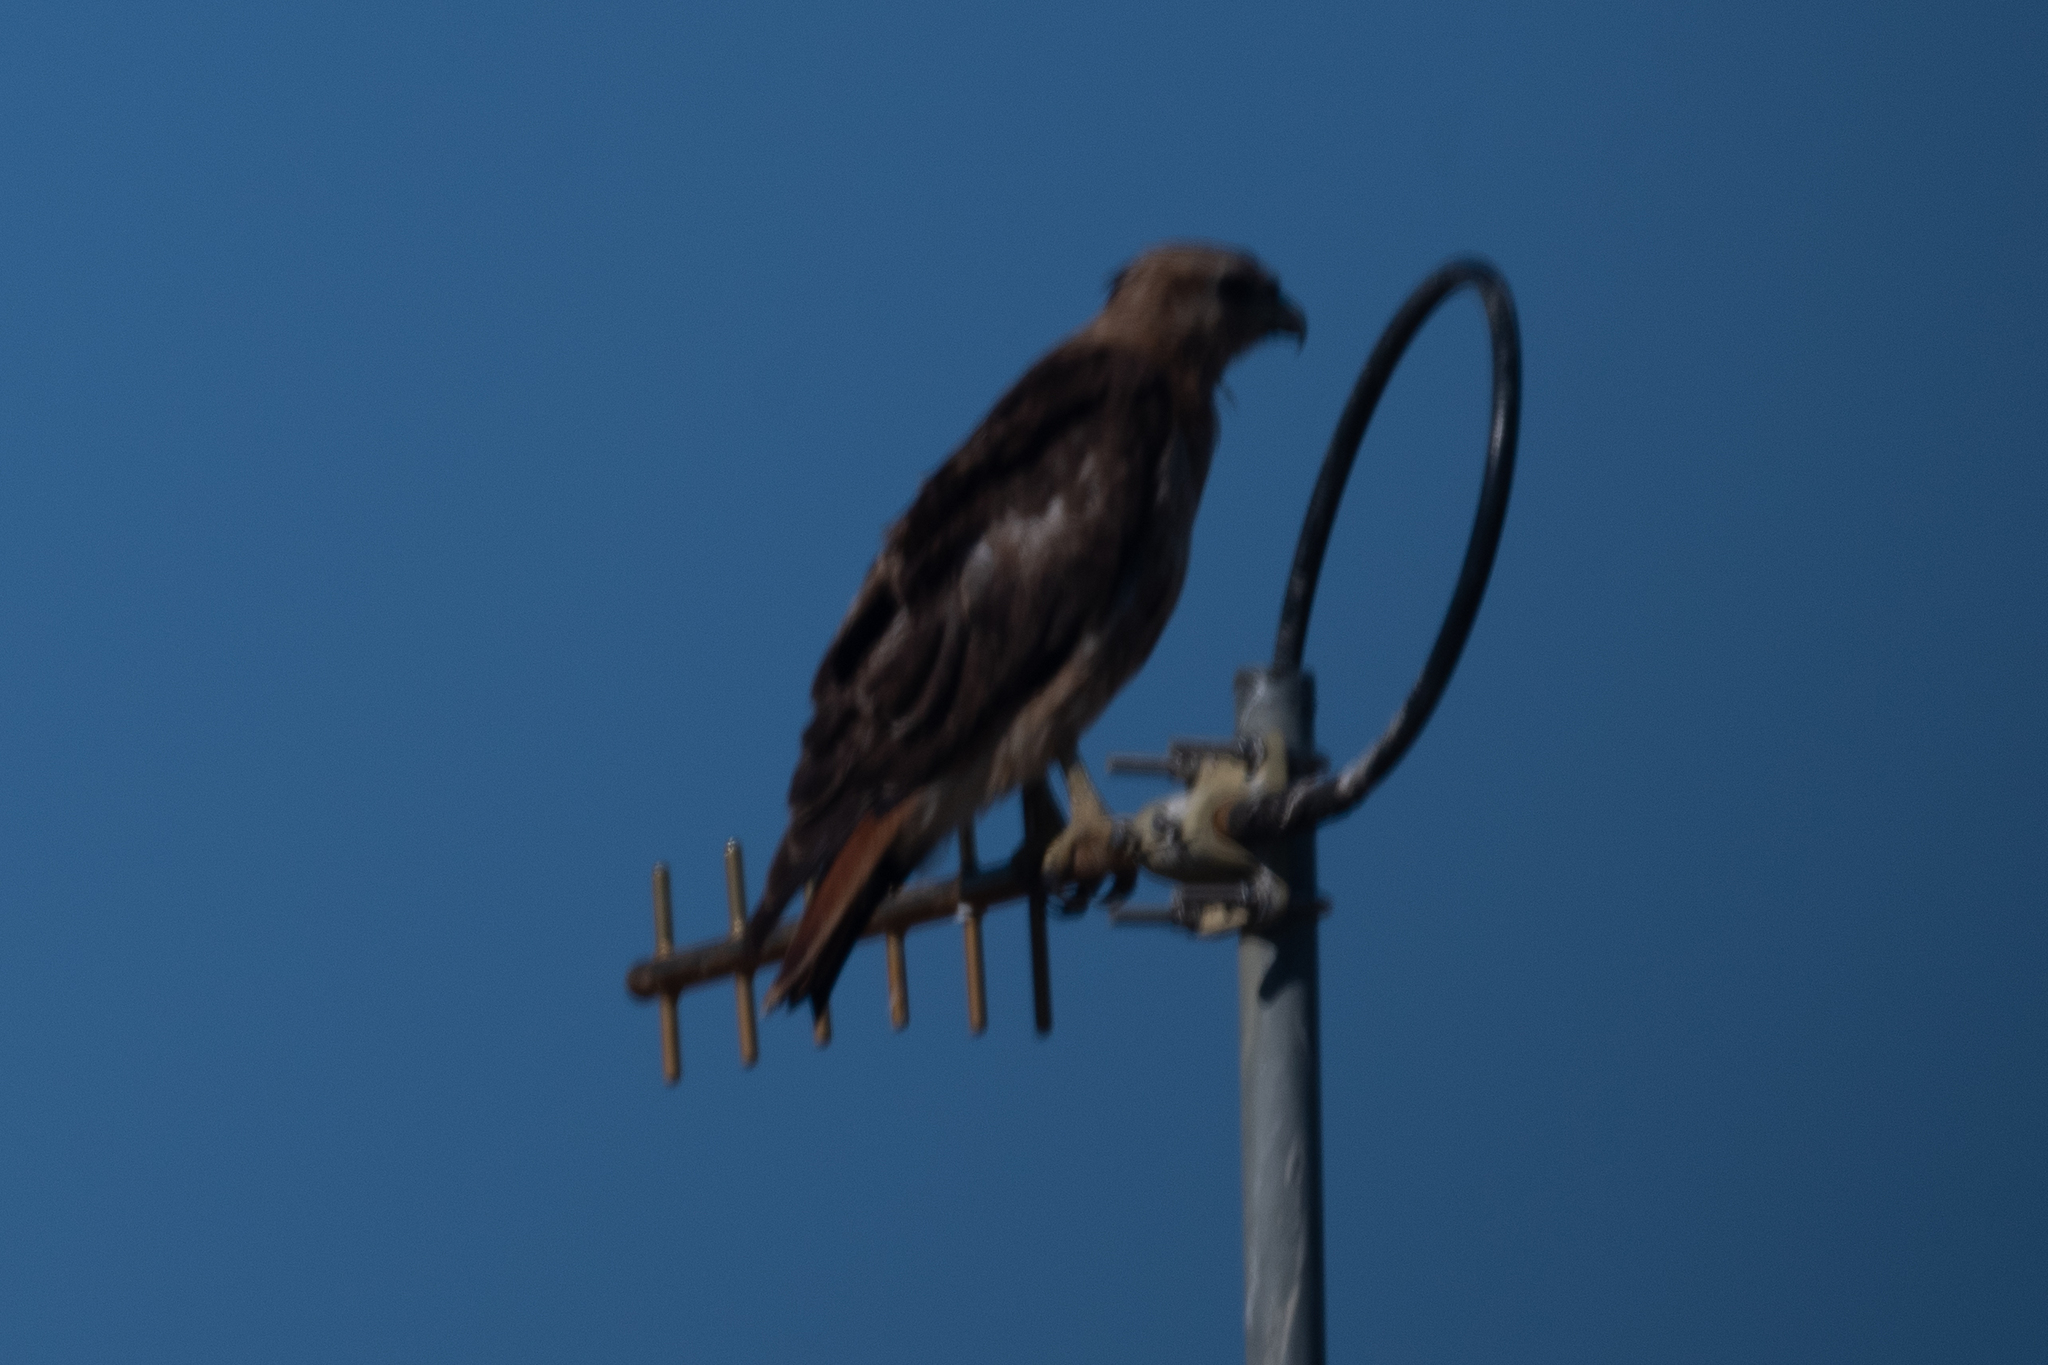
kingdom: Animalia
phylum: Chordata
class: Aves
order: Accipitriformes
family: Accipitridae
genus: Buteo
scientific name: Buteo jamaicensis
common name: Red-tailed hawk
